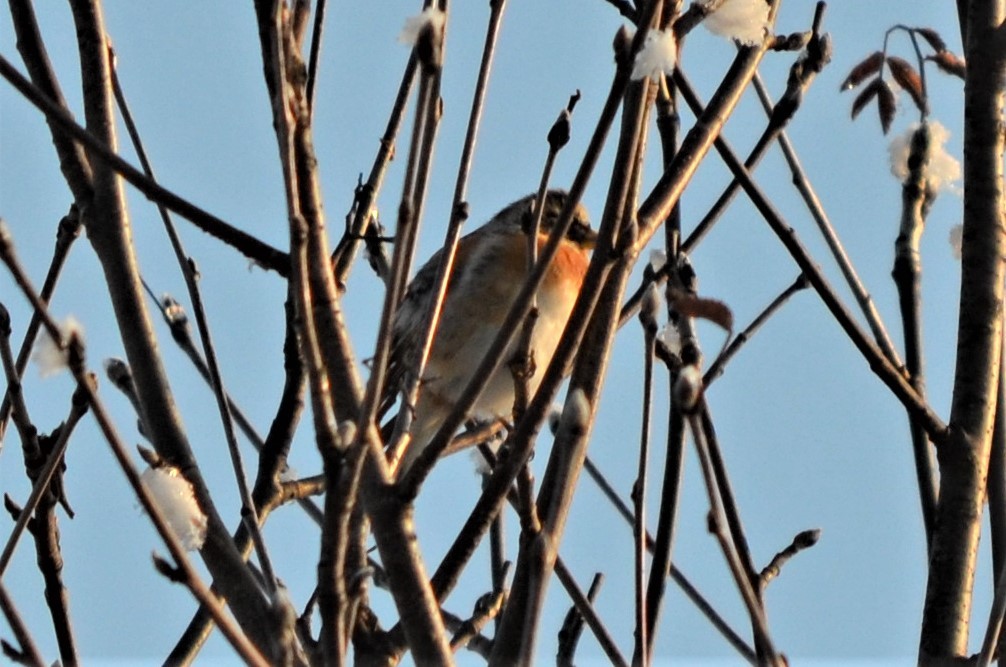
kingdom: Animalia
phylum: Chordata
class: Aves
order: Passeriformes
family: Fringillidae
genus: Fringilla
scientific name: Fringilla montifringilla
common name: Brambling
